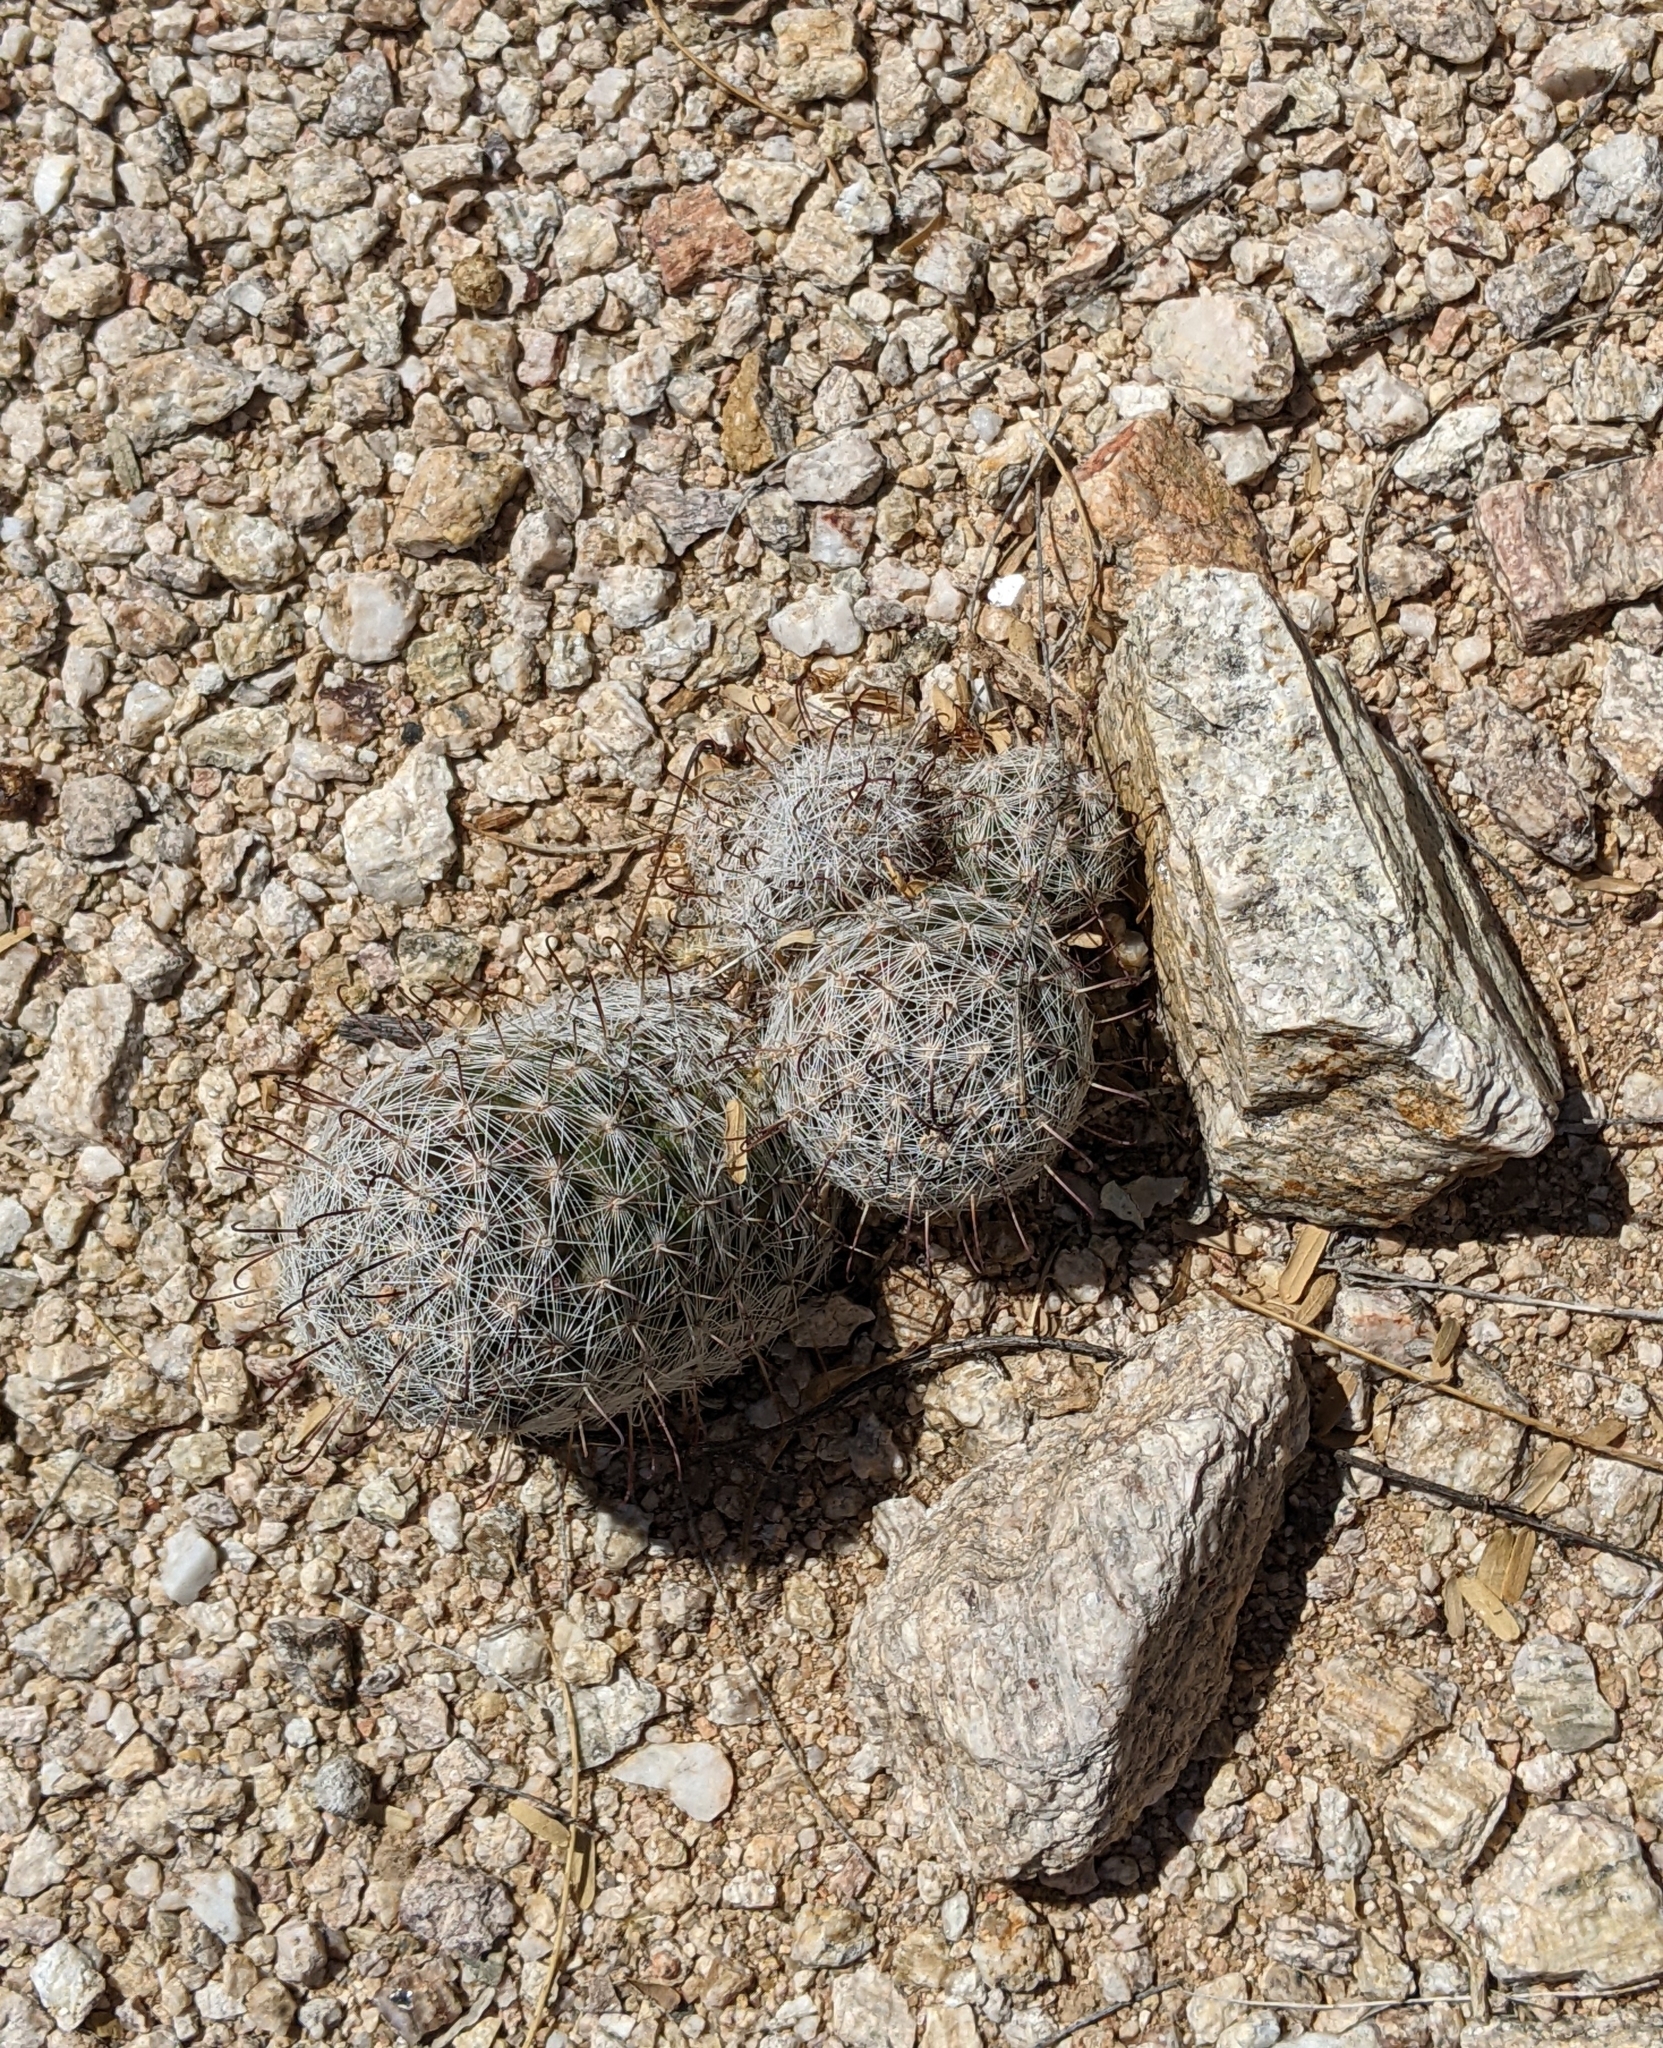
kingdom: Plantae
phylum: Tracheophyta
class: Magnoliopsida
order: Caryophyllales
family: Cactaceae
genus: Cochemiea
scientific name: Cochemiea grahamii
